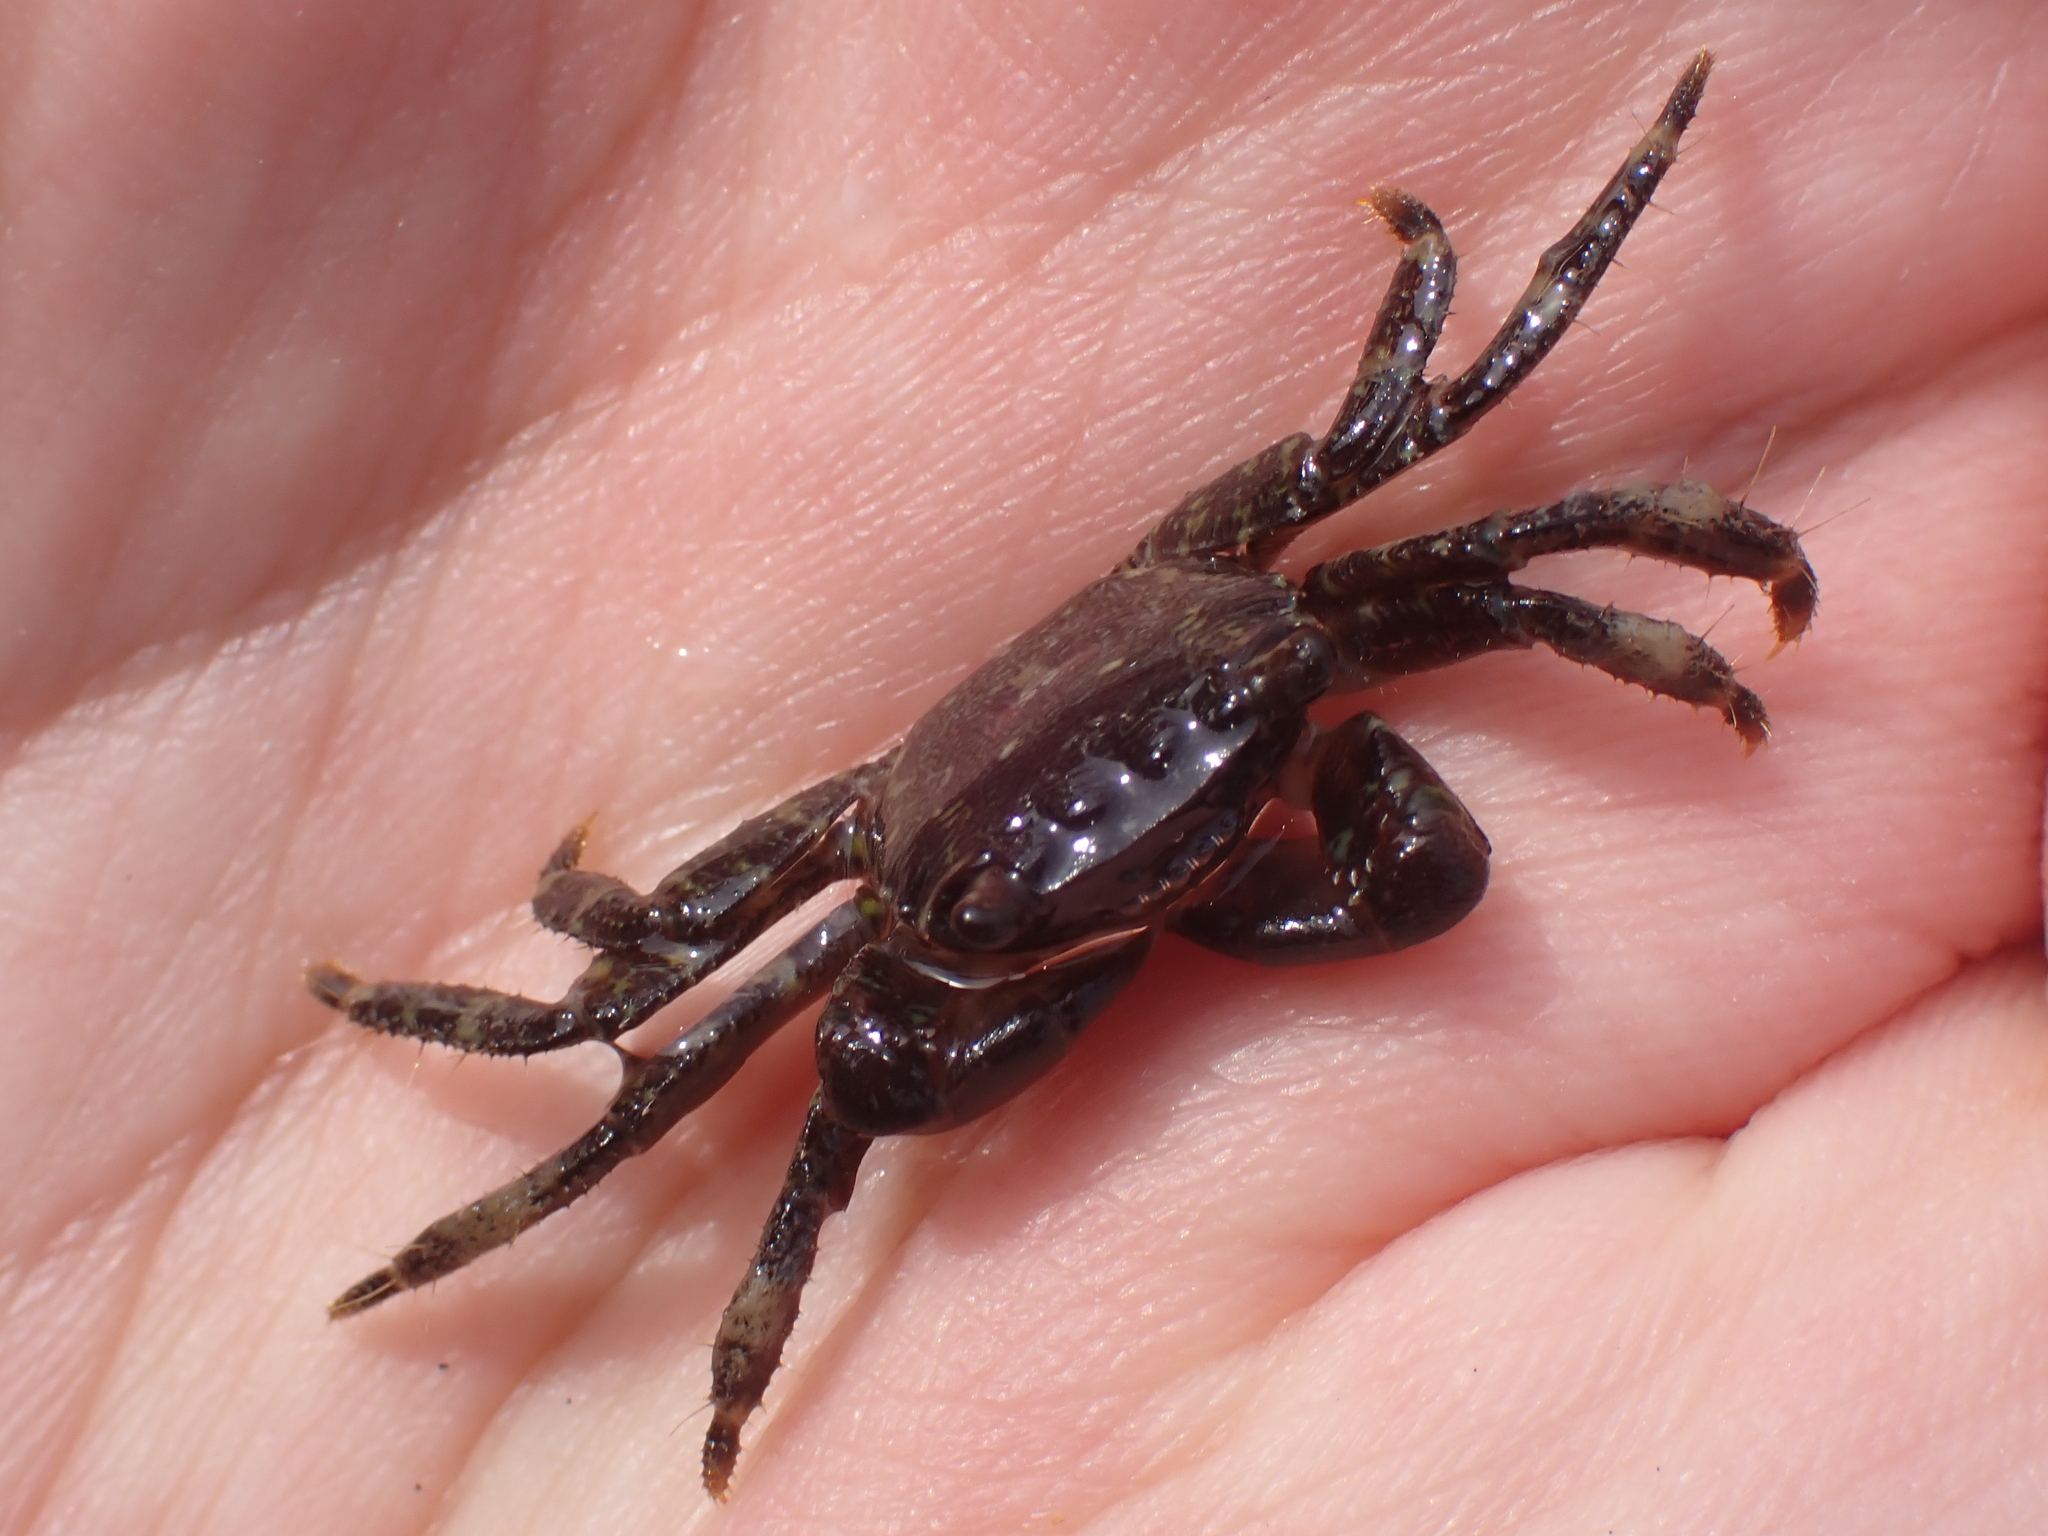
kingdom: Animalia
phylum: Arthropoda
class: Malacostraca
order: Decapoda
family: Grapsidae
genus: Pachygrapsus
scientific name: Pachygrapsus marmoratus
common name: Marbled rock crab
